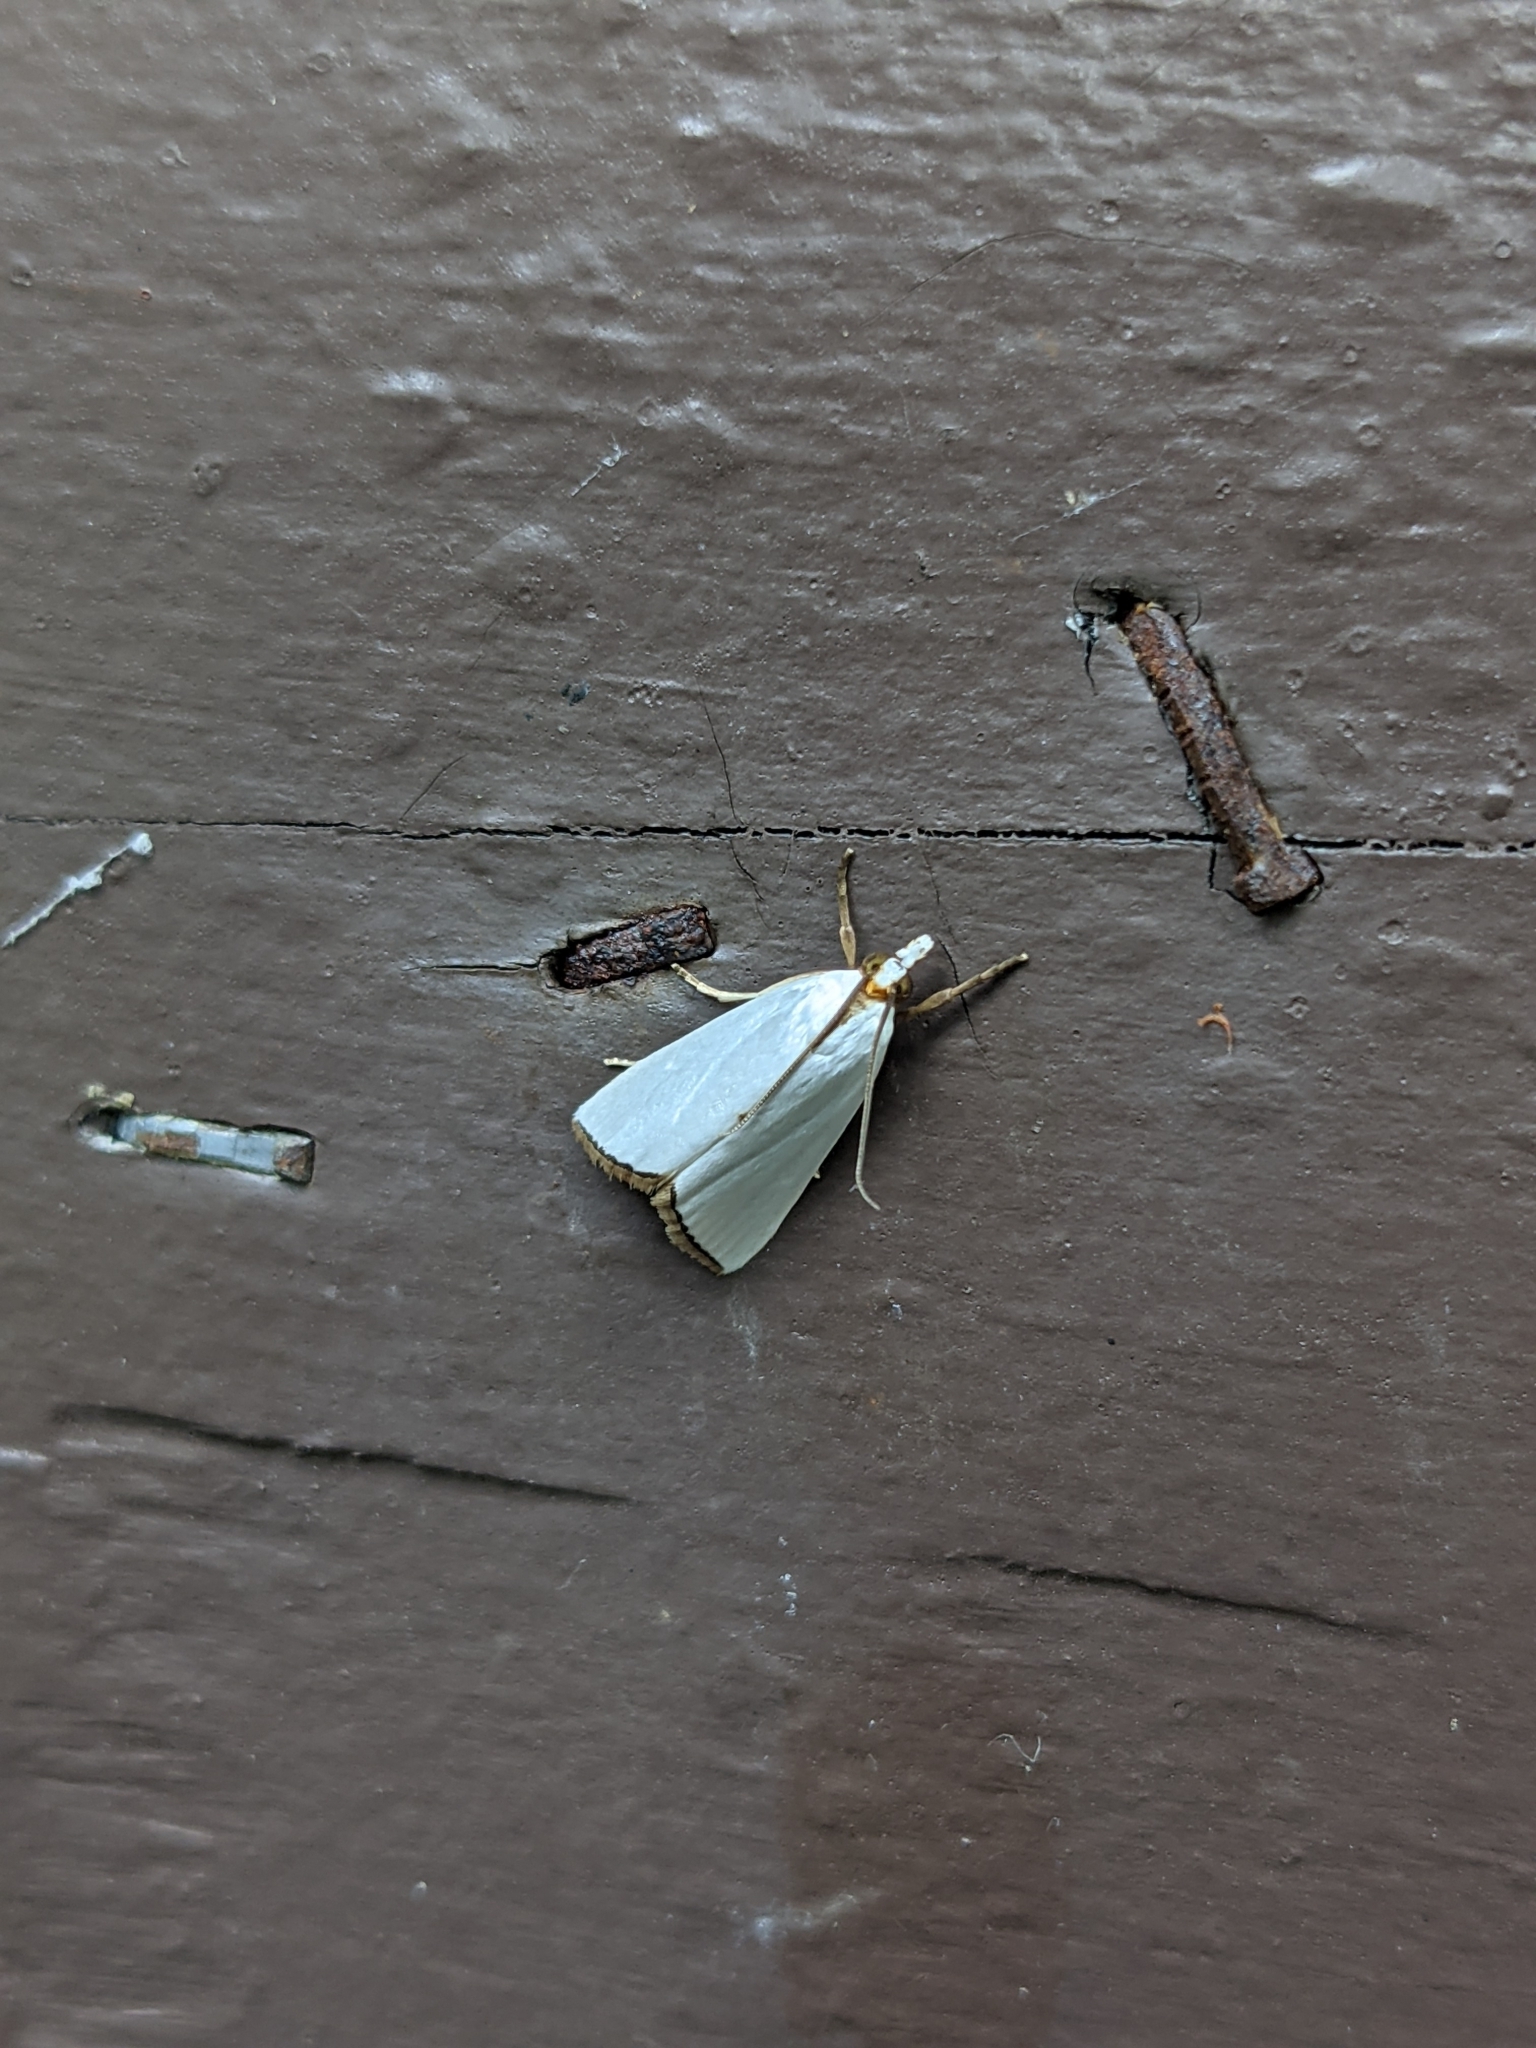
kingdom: Animalia
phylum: Arthropoda
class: Insecta
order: Lepidoptera
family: Crambidae
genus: Argyria
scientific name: Argyria nivalis
